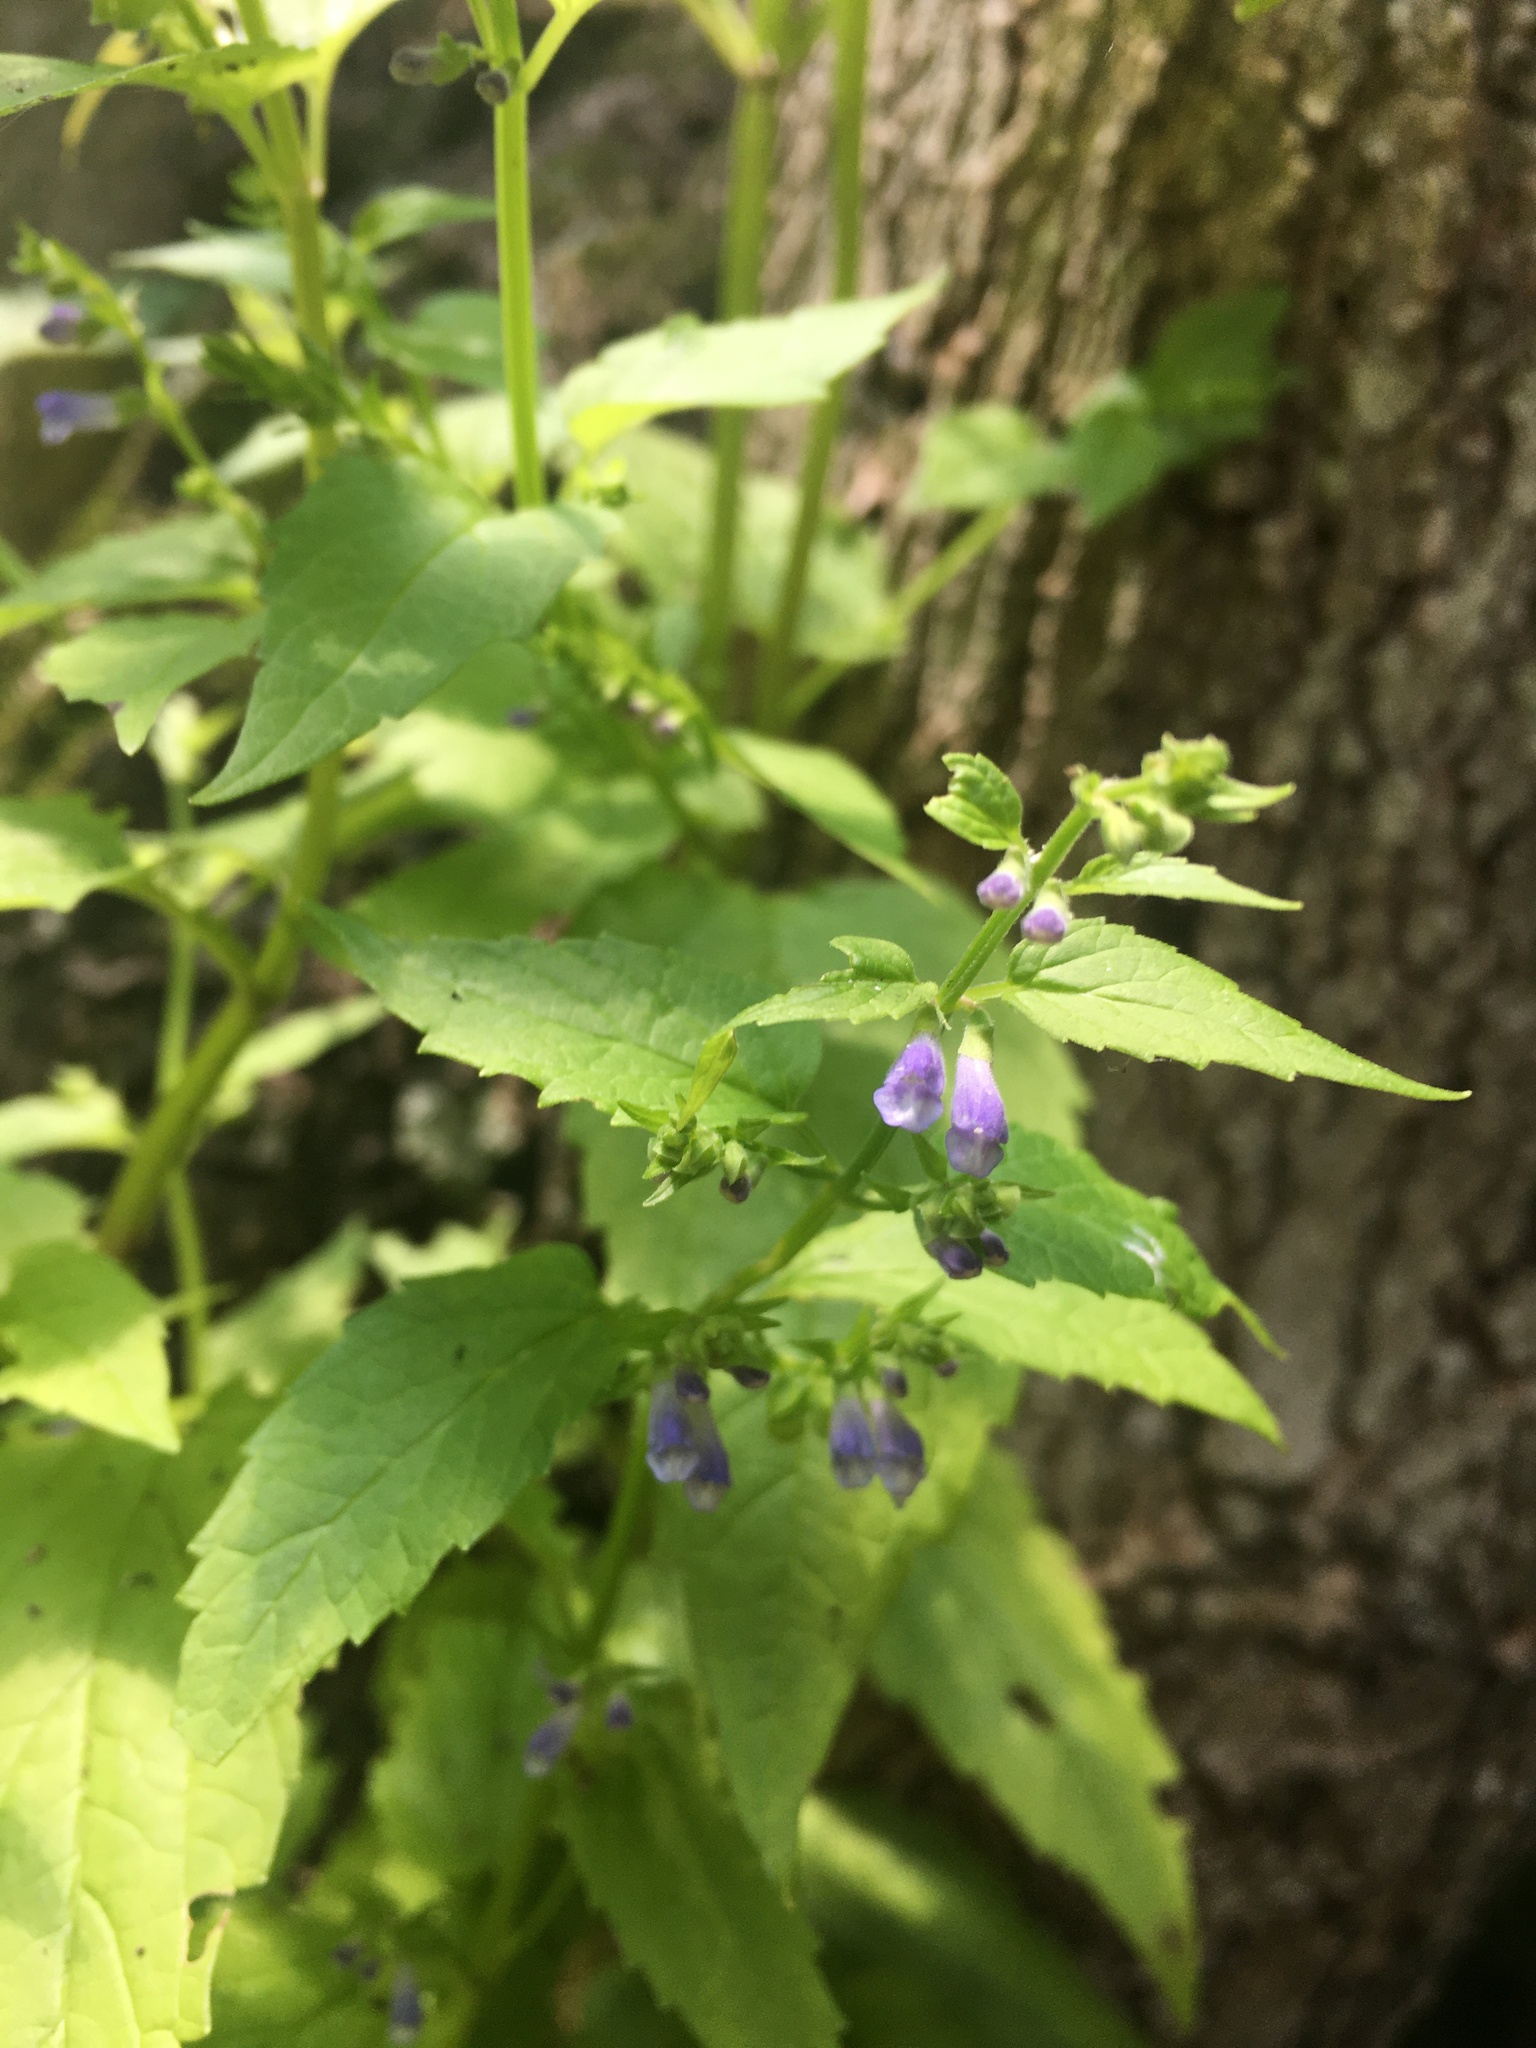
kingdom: Plantae
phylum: Tracheophyta
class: Magnoliopsida
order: Lamiales
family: Lamiaceae
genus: Scutellaria
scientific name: Scutellaria lateriflora
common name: Blue skullcap
